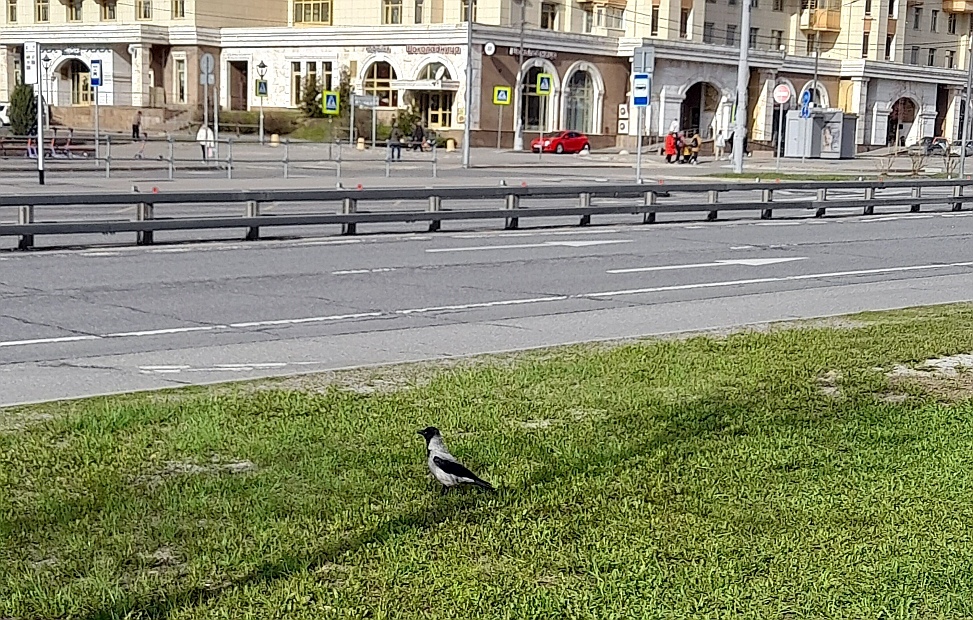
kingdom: Animalia
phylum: Chordata
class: Aves
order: Passeriformes
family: Corvidae
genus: Corvus
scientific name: Corvus cornix
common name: Hooded crow
